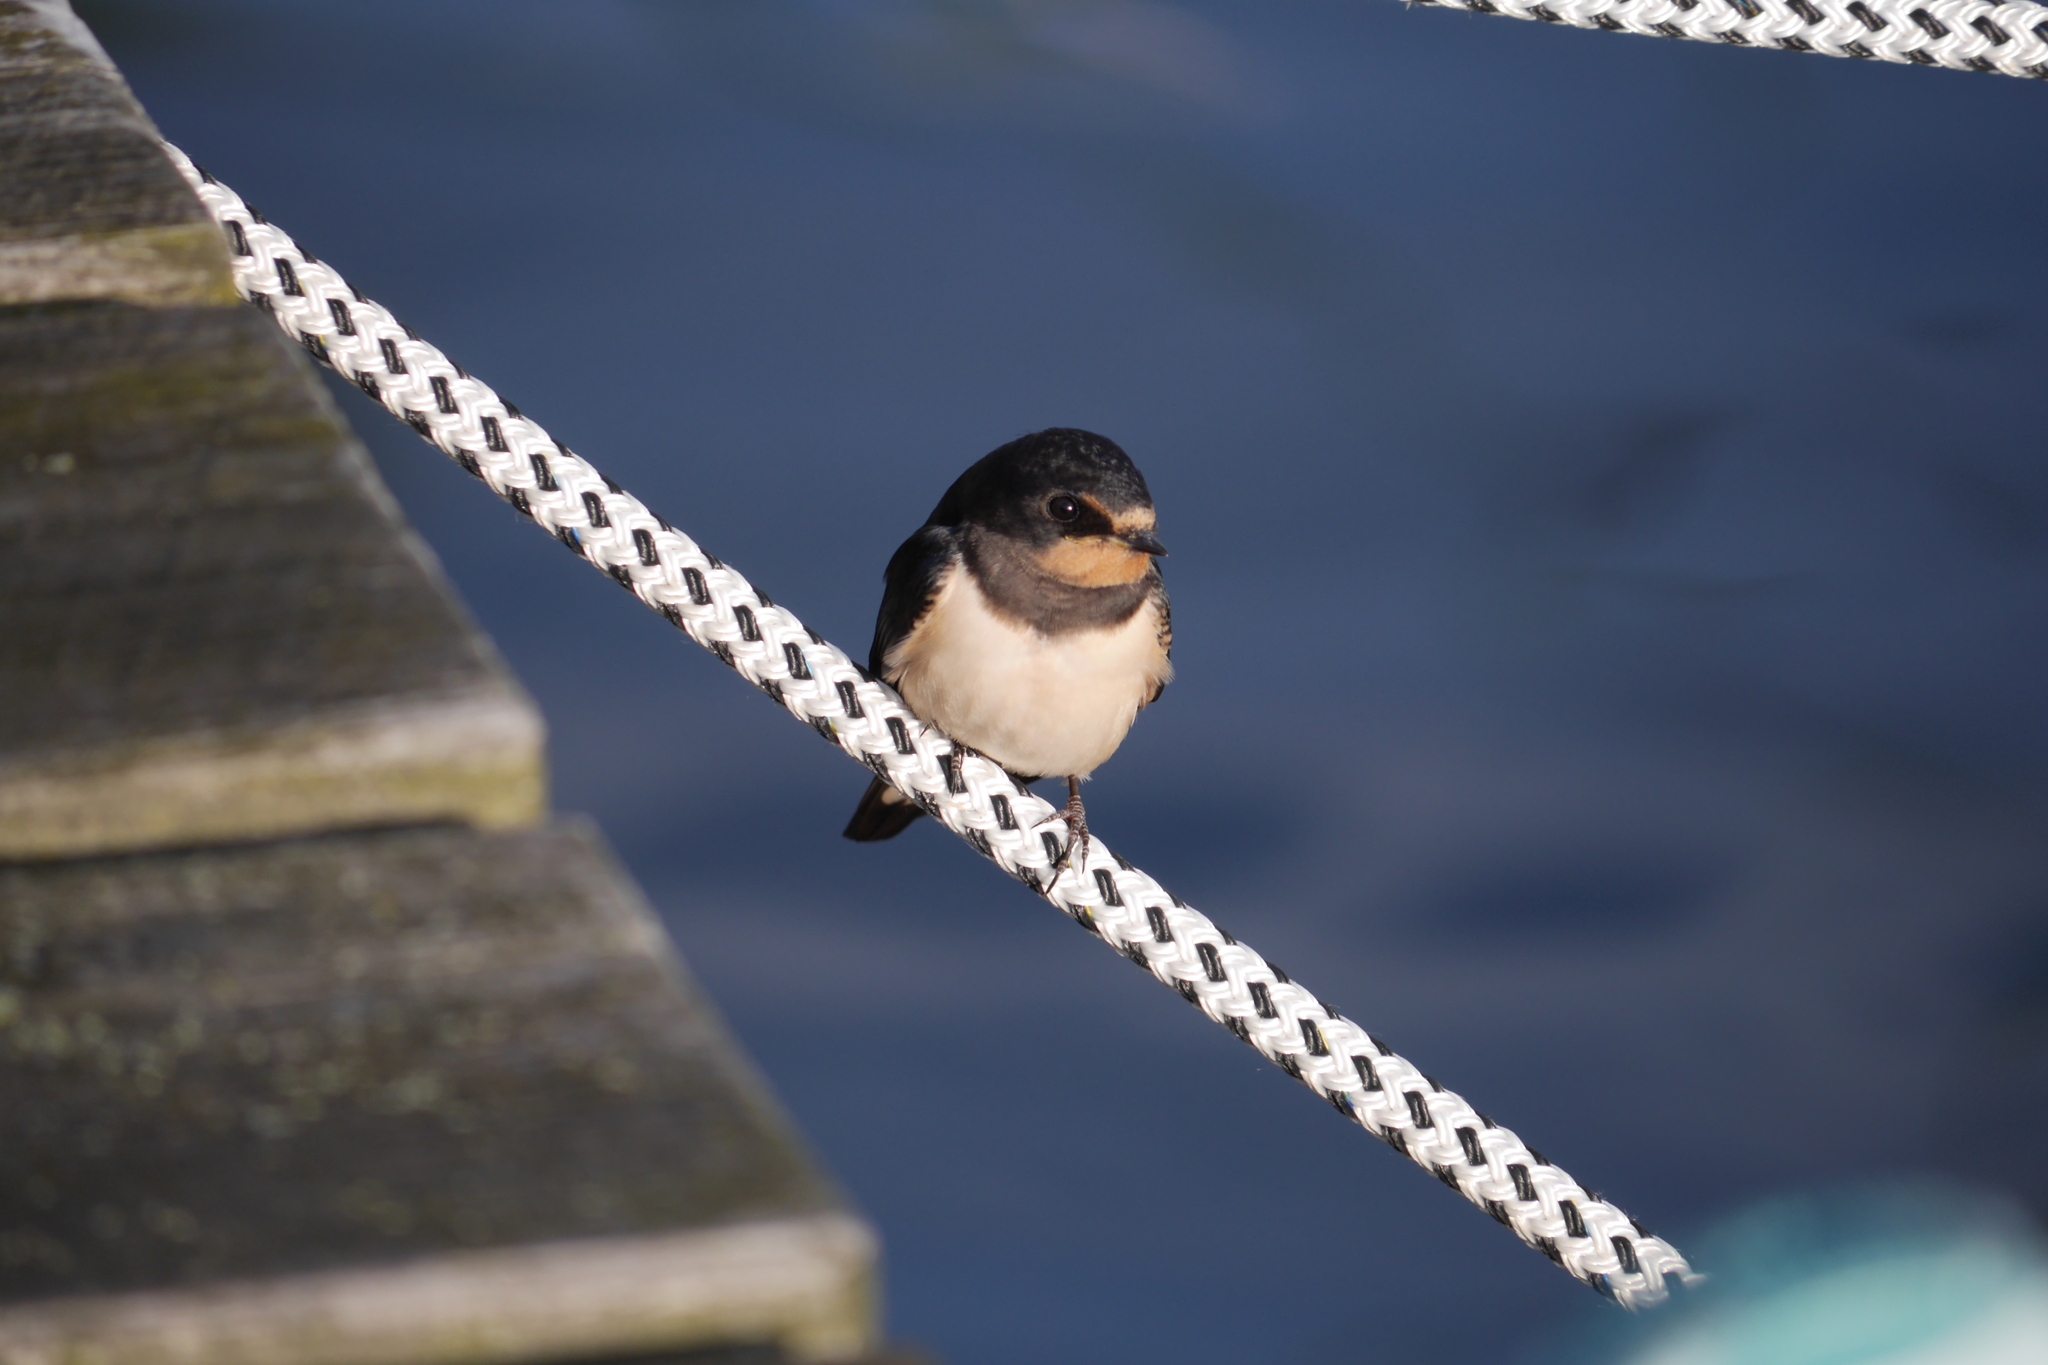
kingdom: Animalia
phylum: Chordata
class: Aves
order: Passeriformes
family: Hirundinidae
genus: Hirundo
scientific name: Hirundo rustica
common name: Barn swallow
